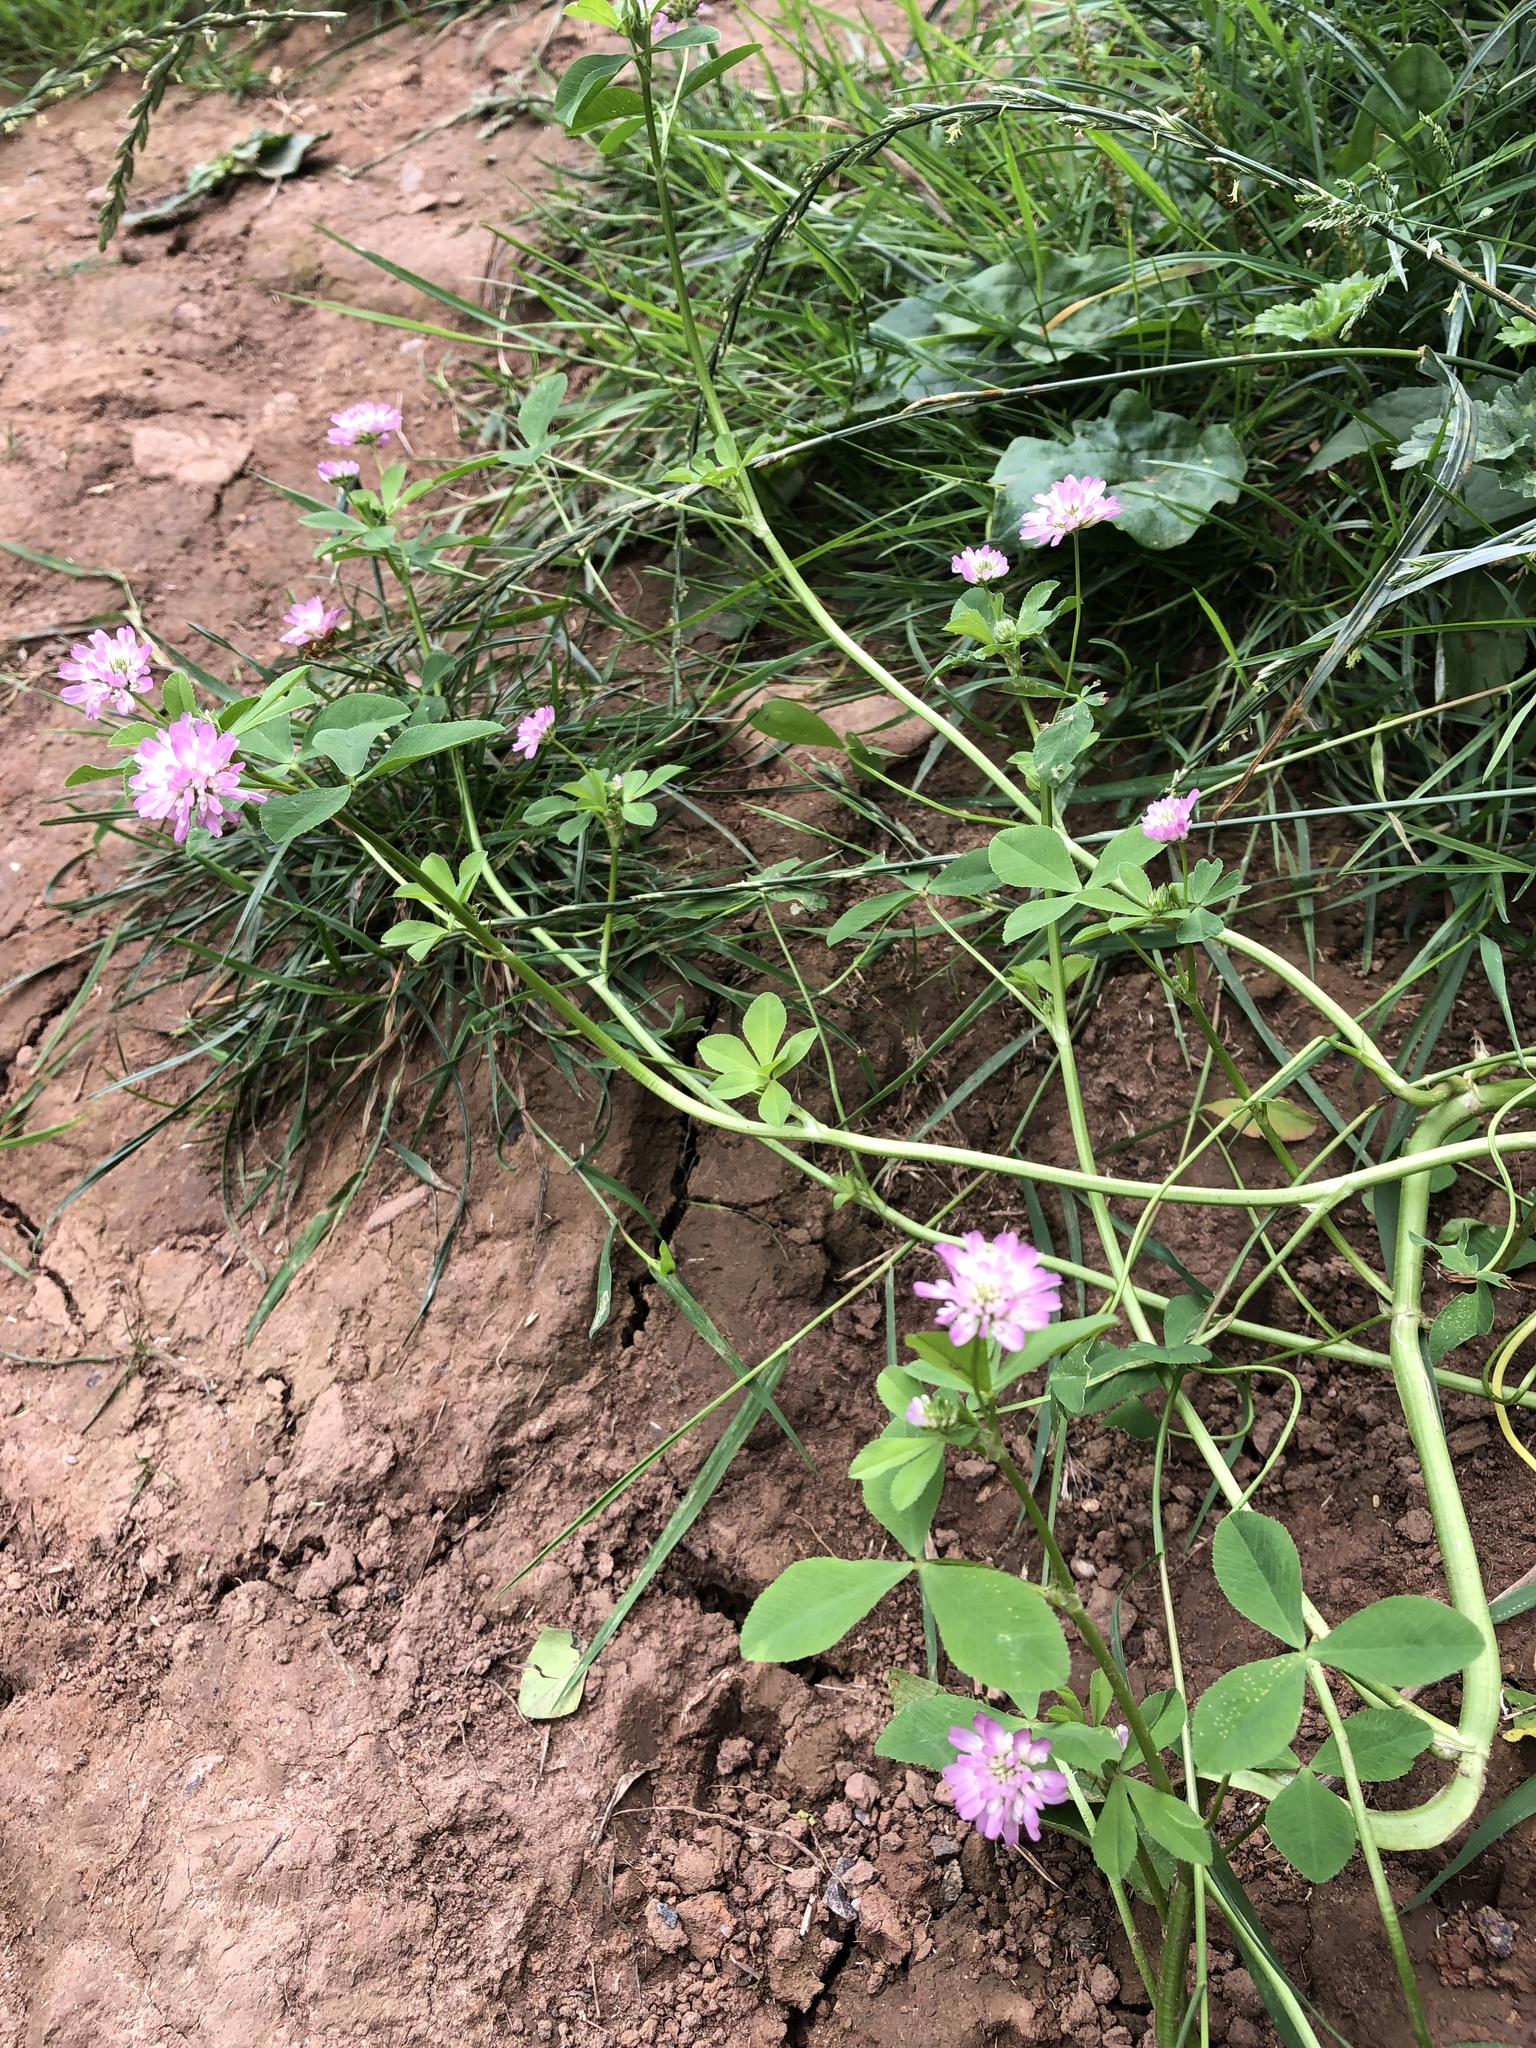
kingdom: Plantae
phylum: Tracheophyta
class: Magnoliopsida
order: Fabales
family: Fabaceae
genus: Trifolium
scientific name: Trifolium resupinatum
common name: Reversed clover
